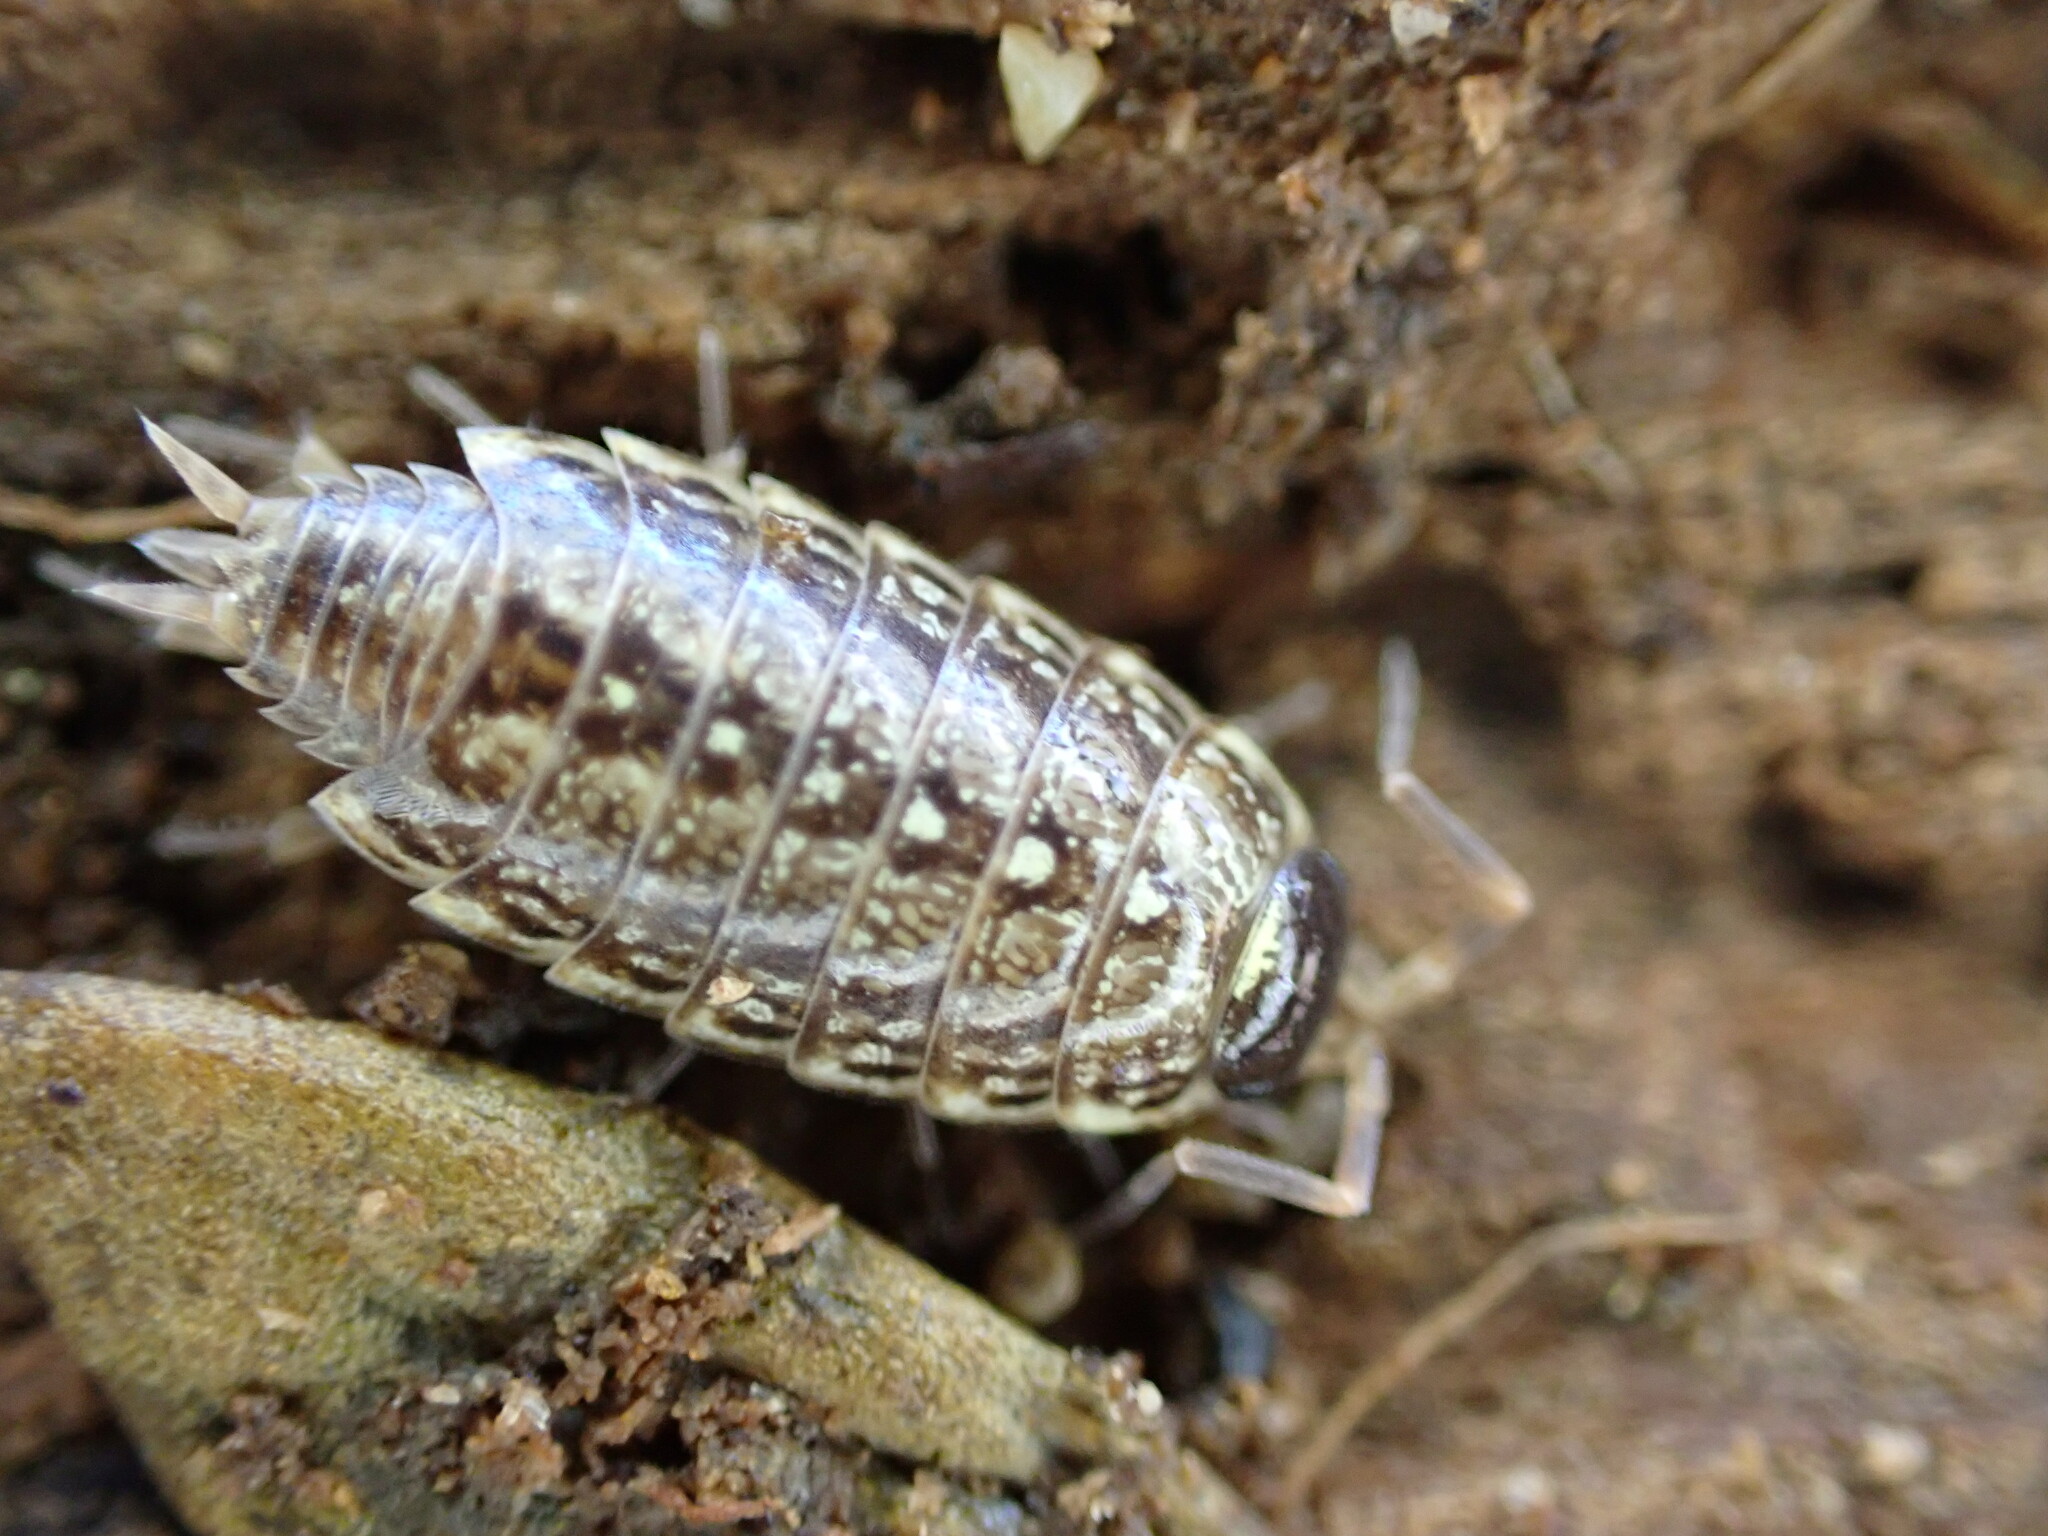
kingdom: Animalia
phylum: Arthropoda
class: Malacostraca
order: Isopoda
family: Philosciidae
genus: Philoscia
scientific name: Philoscia muscorum
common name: Common striped woodlouse
